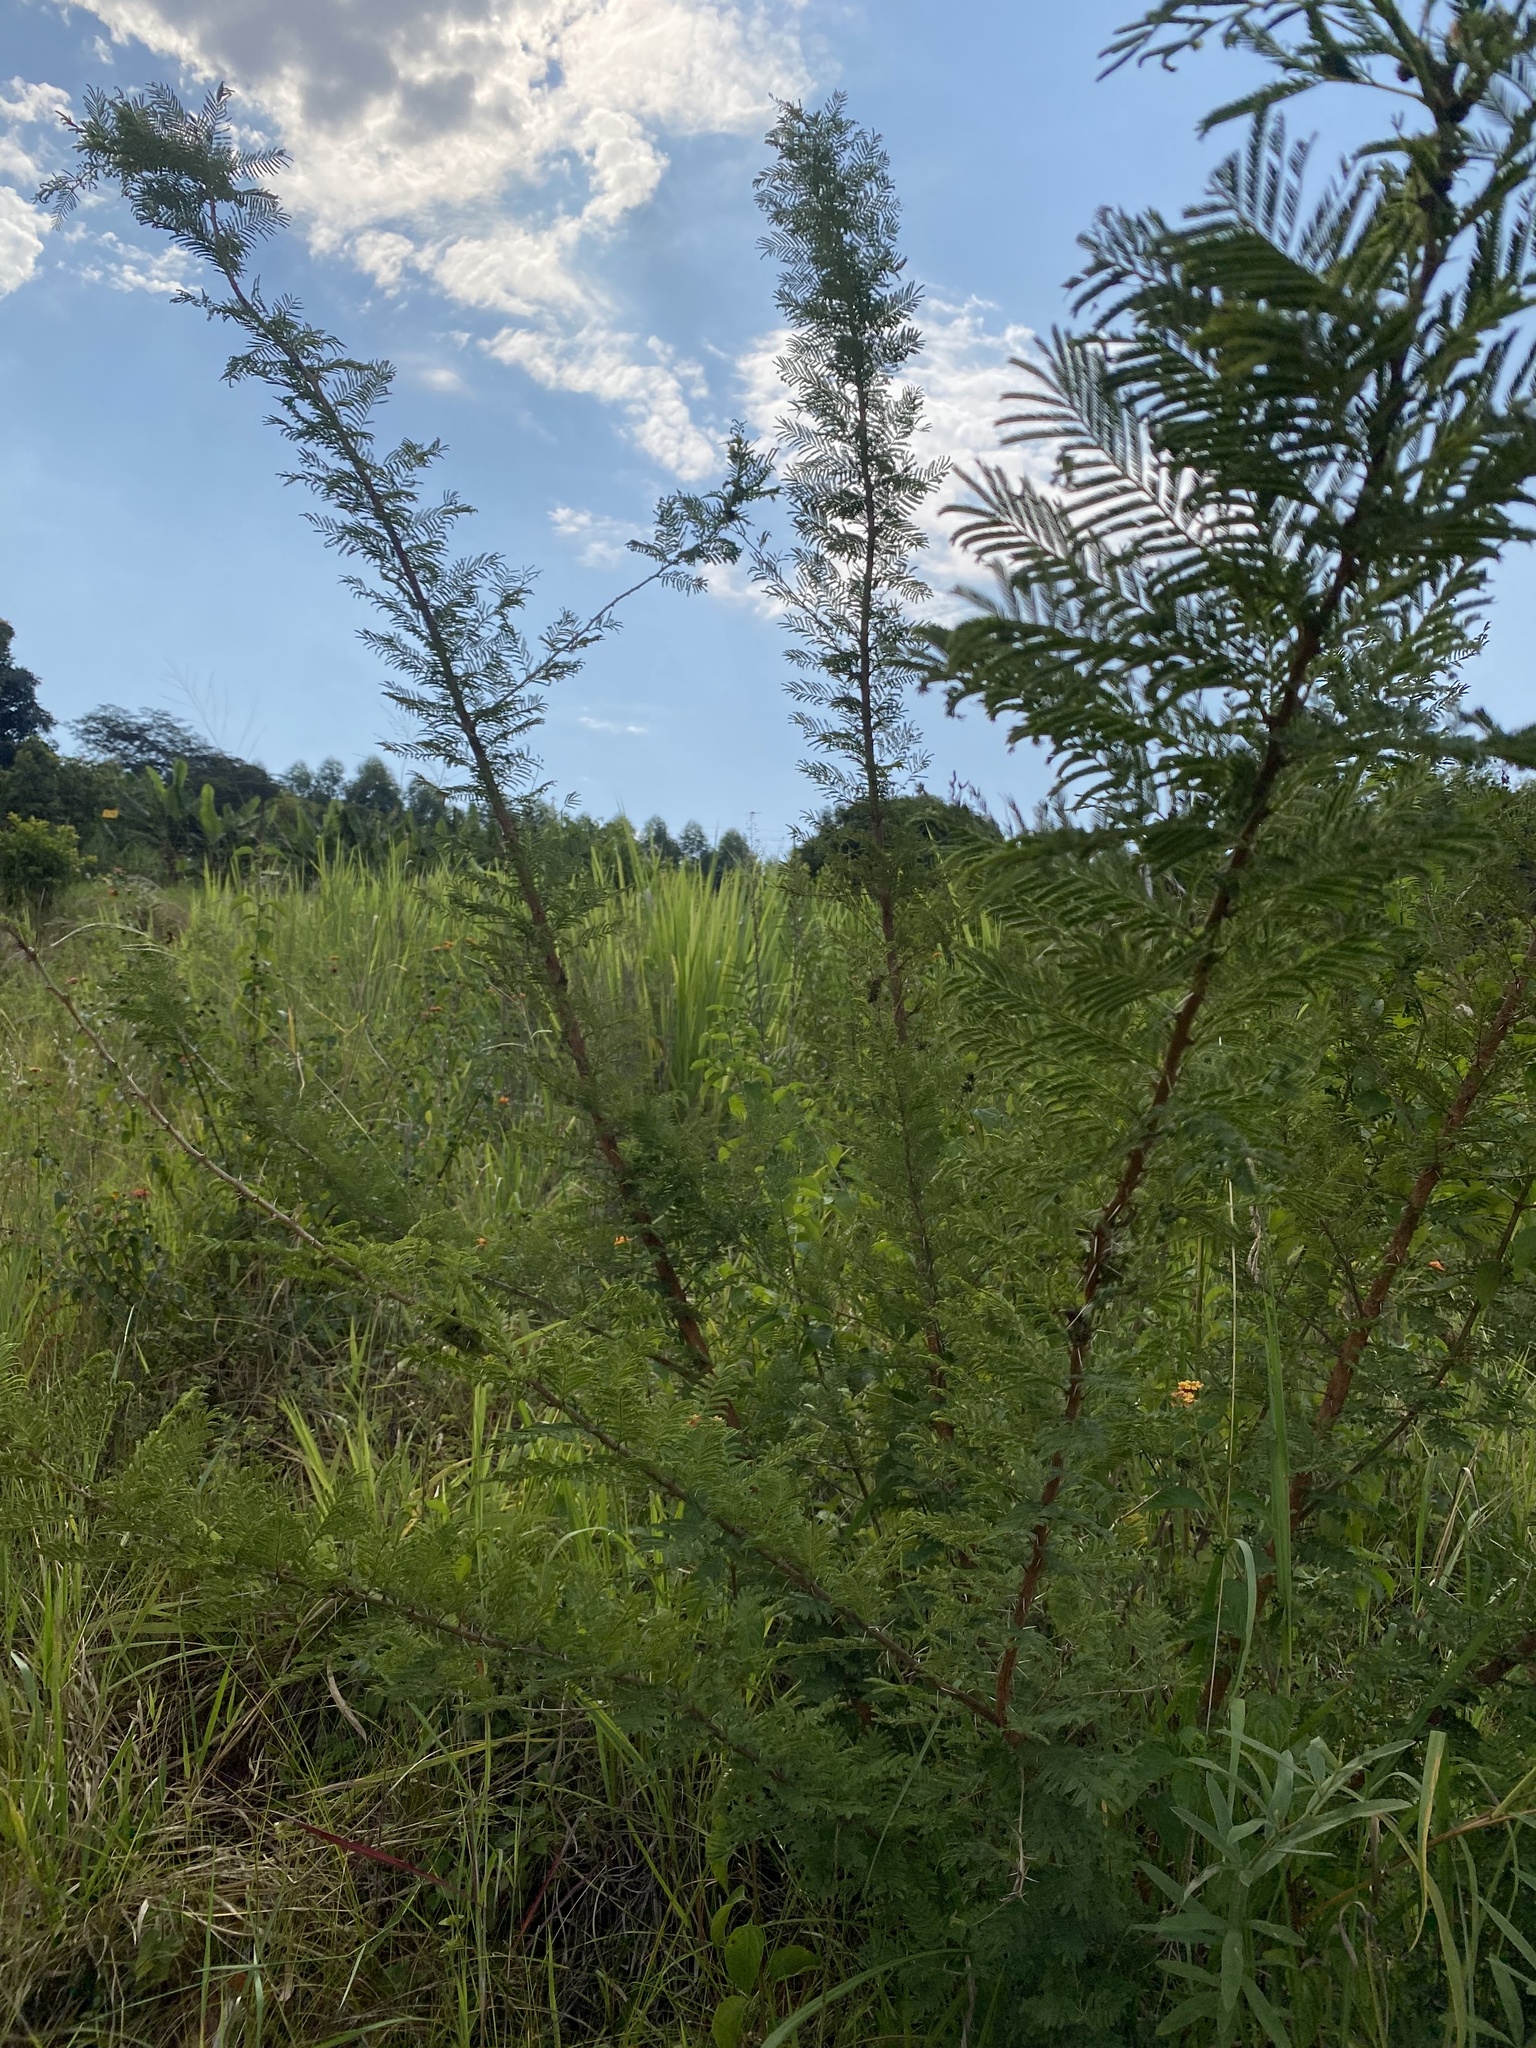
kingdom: Plantae
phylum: Tracheophyta
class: Magnoliopsida
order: Fabales
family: Fabaceae
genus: Vachellia
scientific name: Vachellia natalitia
